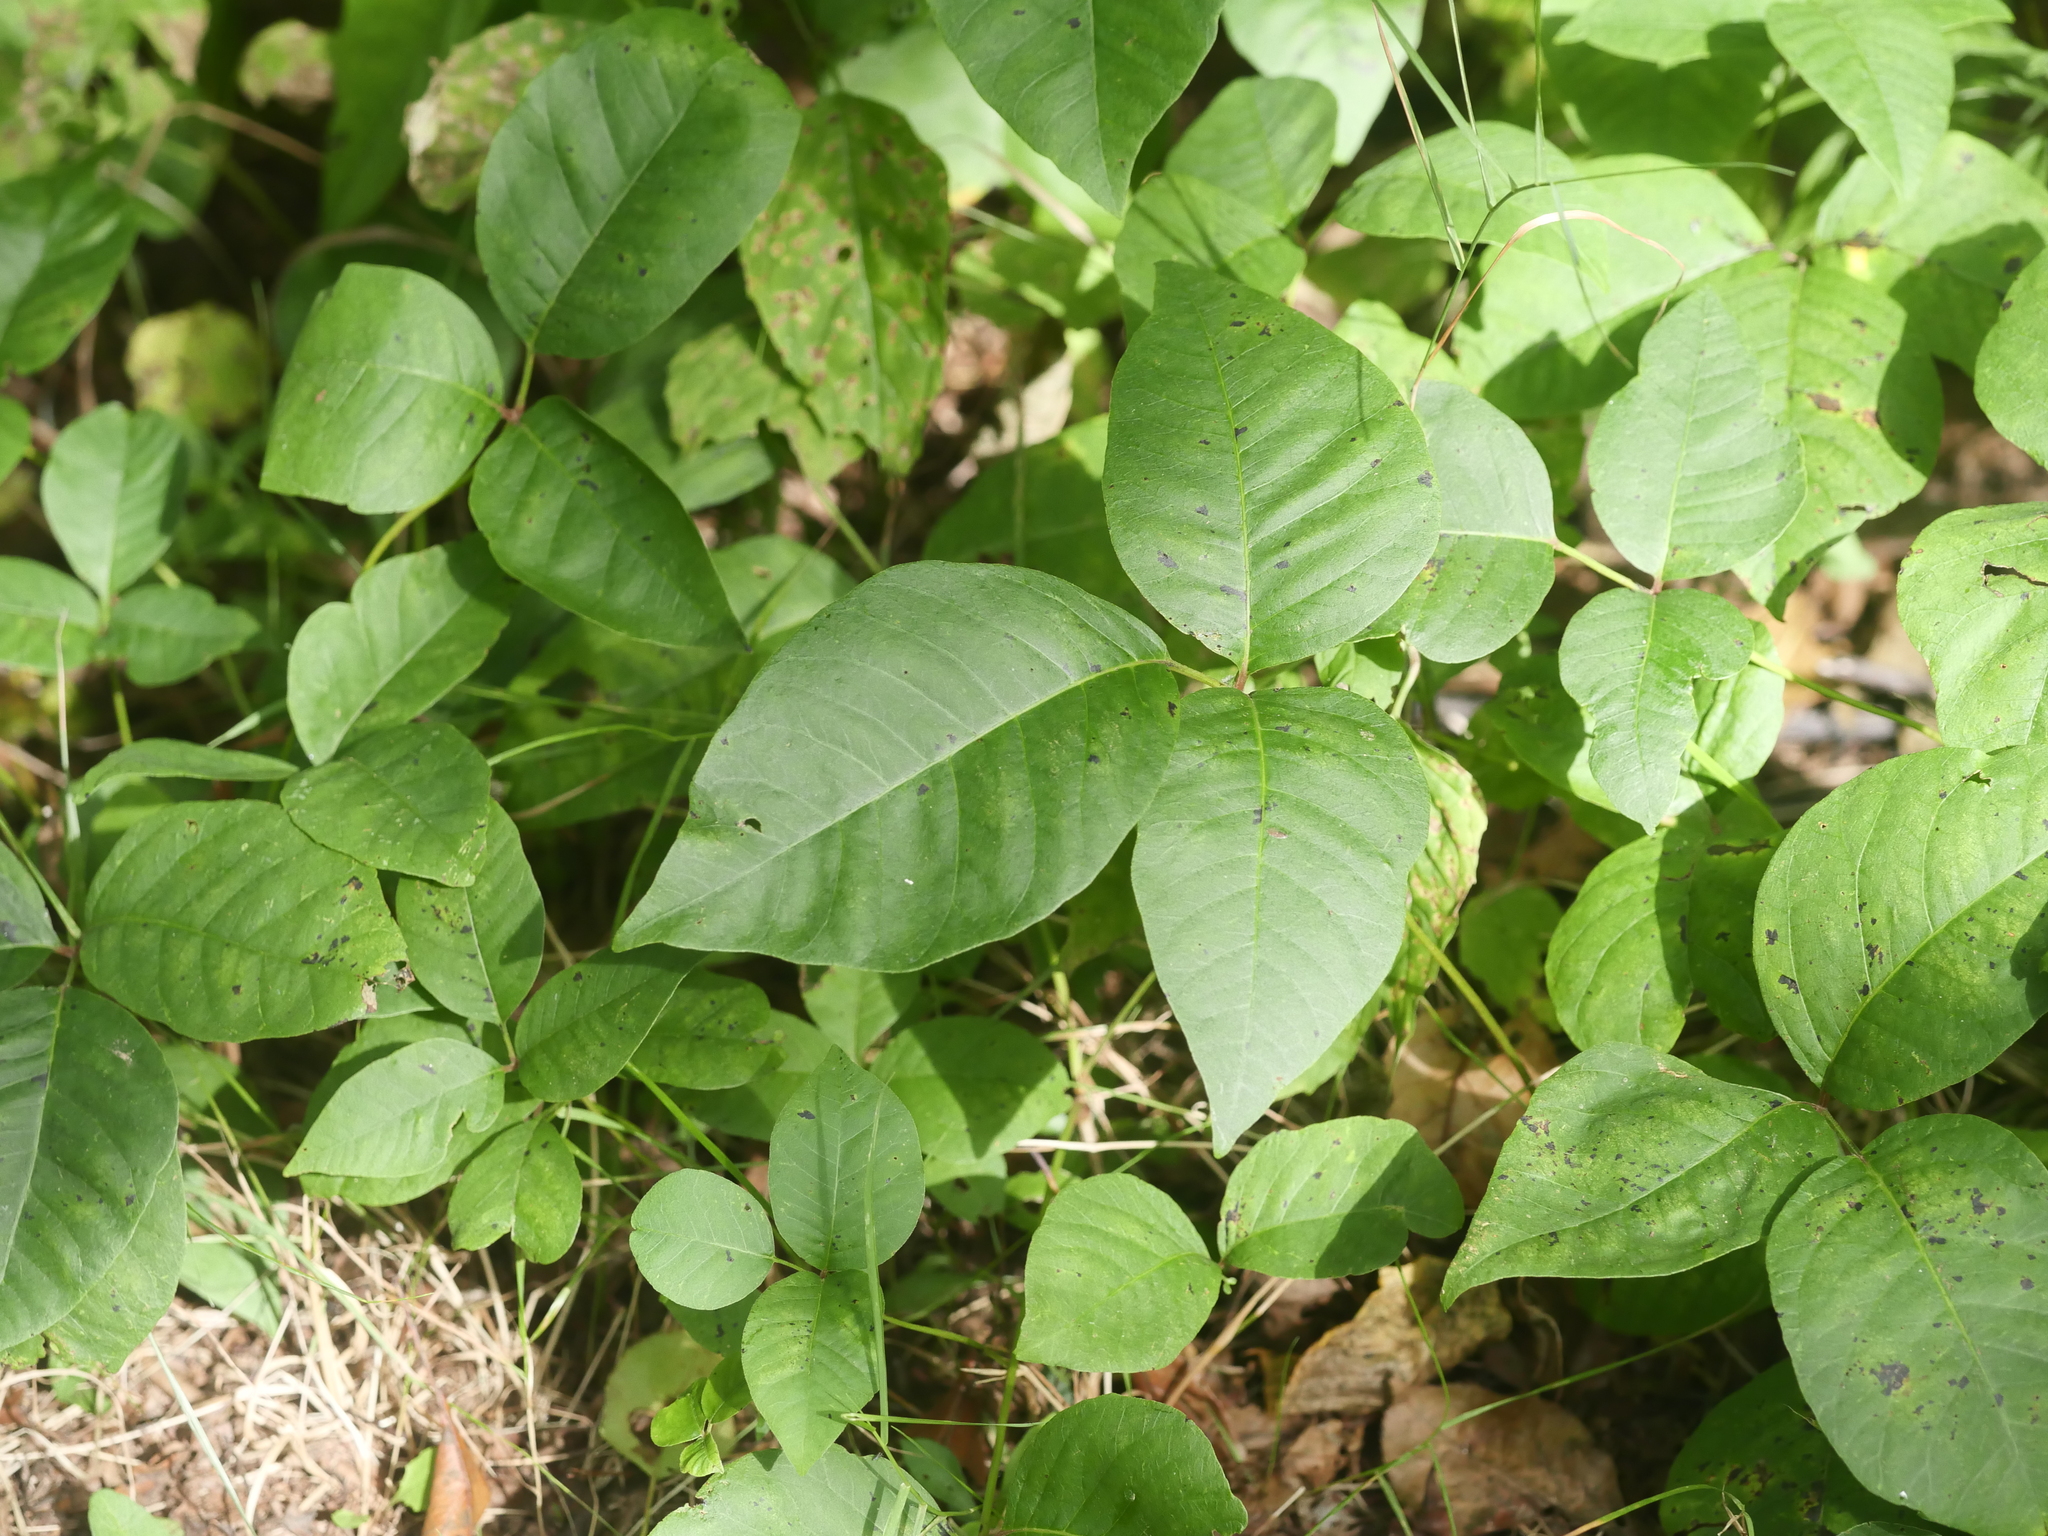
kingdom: Plantae
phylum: Tracheophyta
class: Magnoliopsida
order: Sapindales
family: Anacardiaceae
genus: Toxicodendron
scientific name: Toxicodendron rydbergii
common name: Rydberg's poison-ivy
